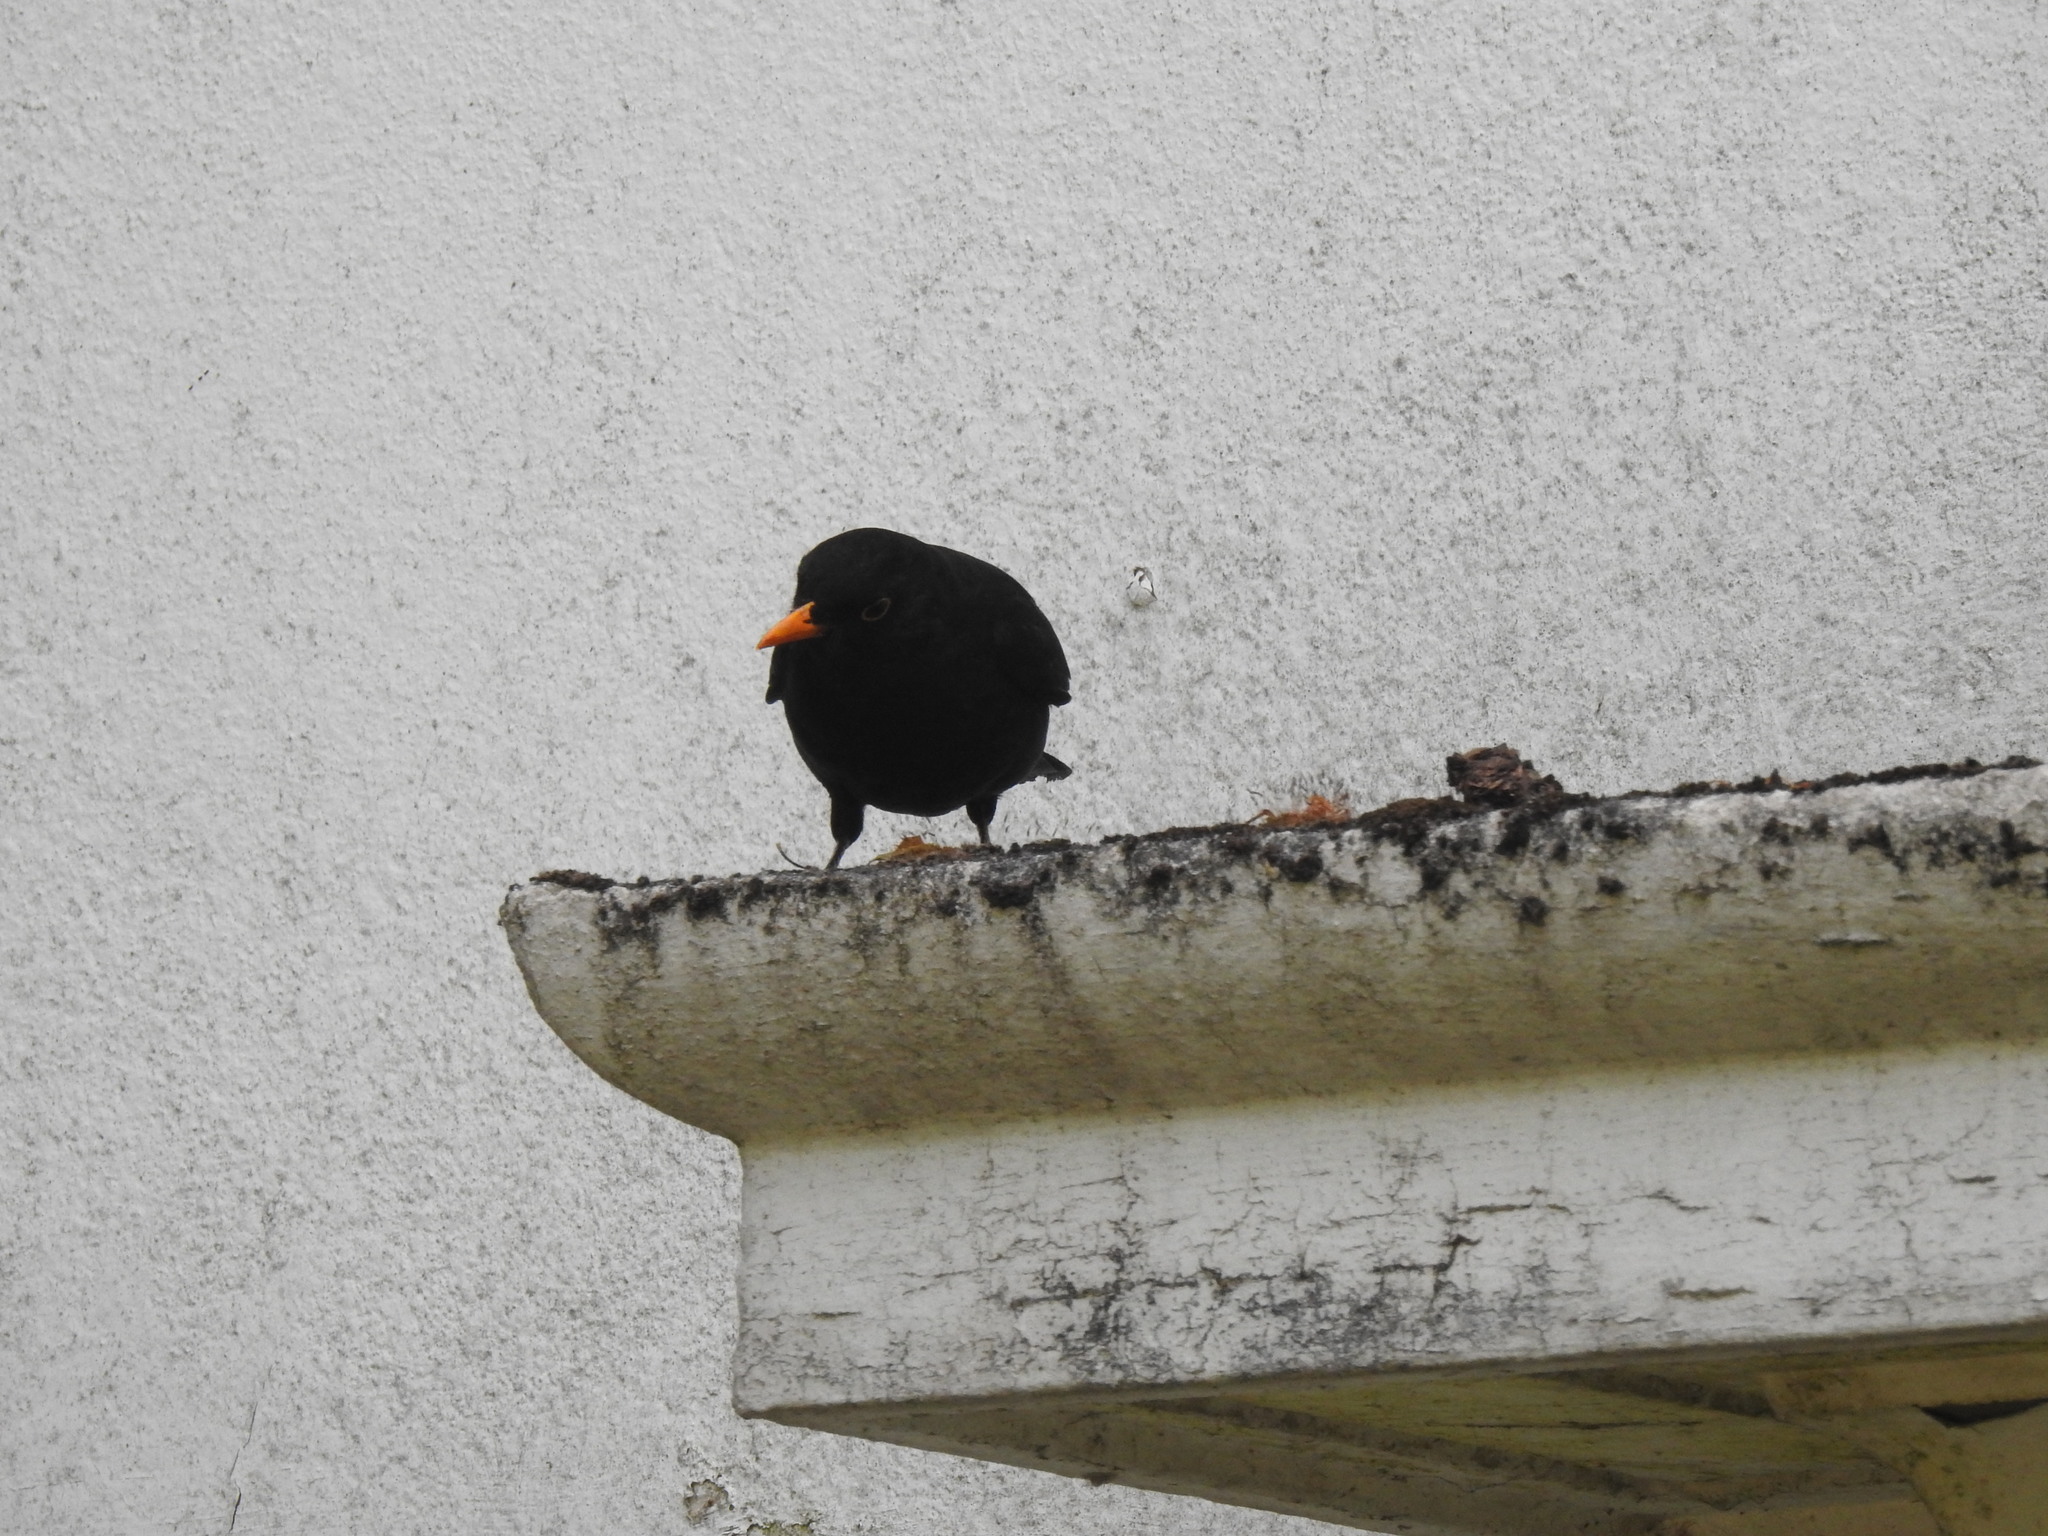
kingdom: Animalia
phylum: Chordata
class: Aves
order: Passeriformes
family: Turdidae
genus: Turdus
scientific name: Turdus merula
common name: Common blackbird
